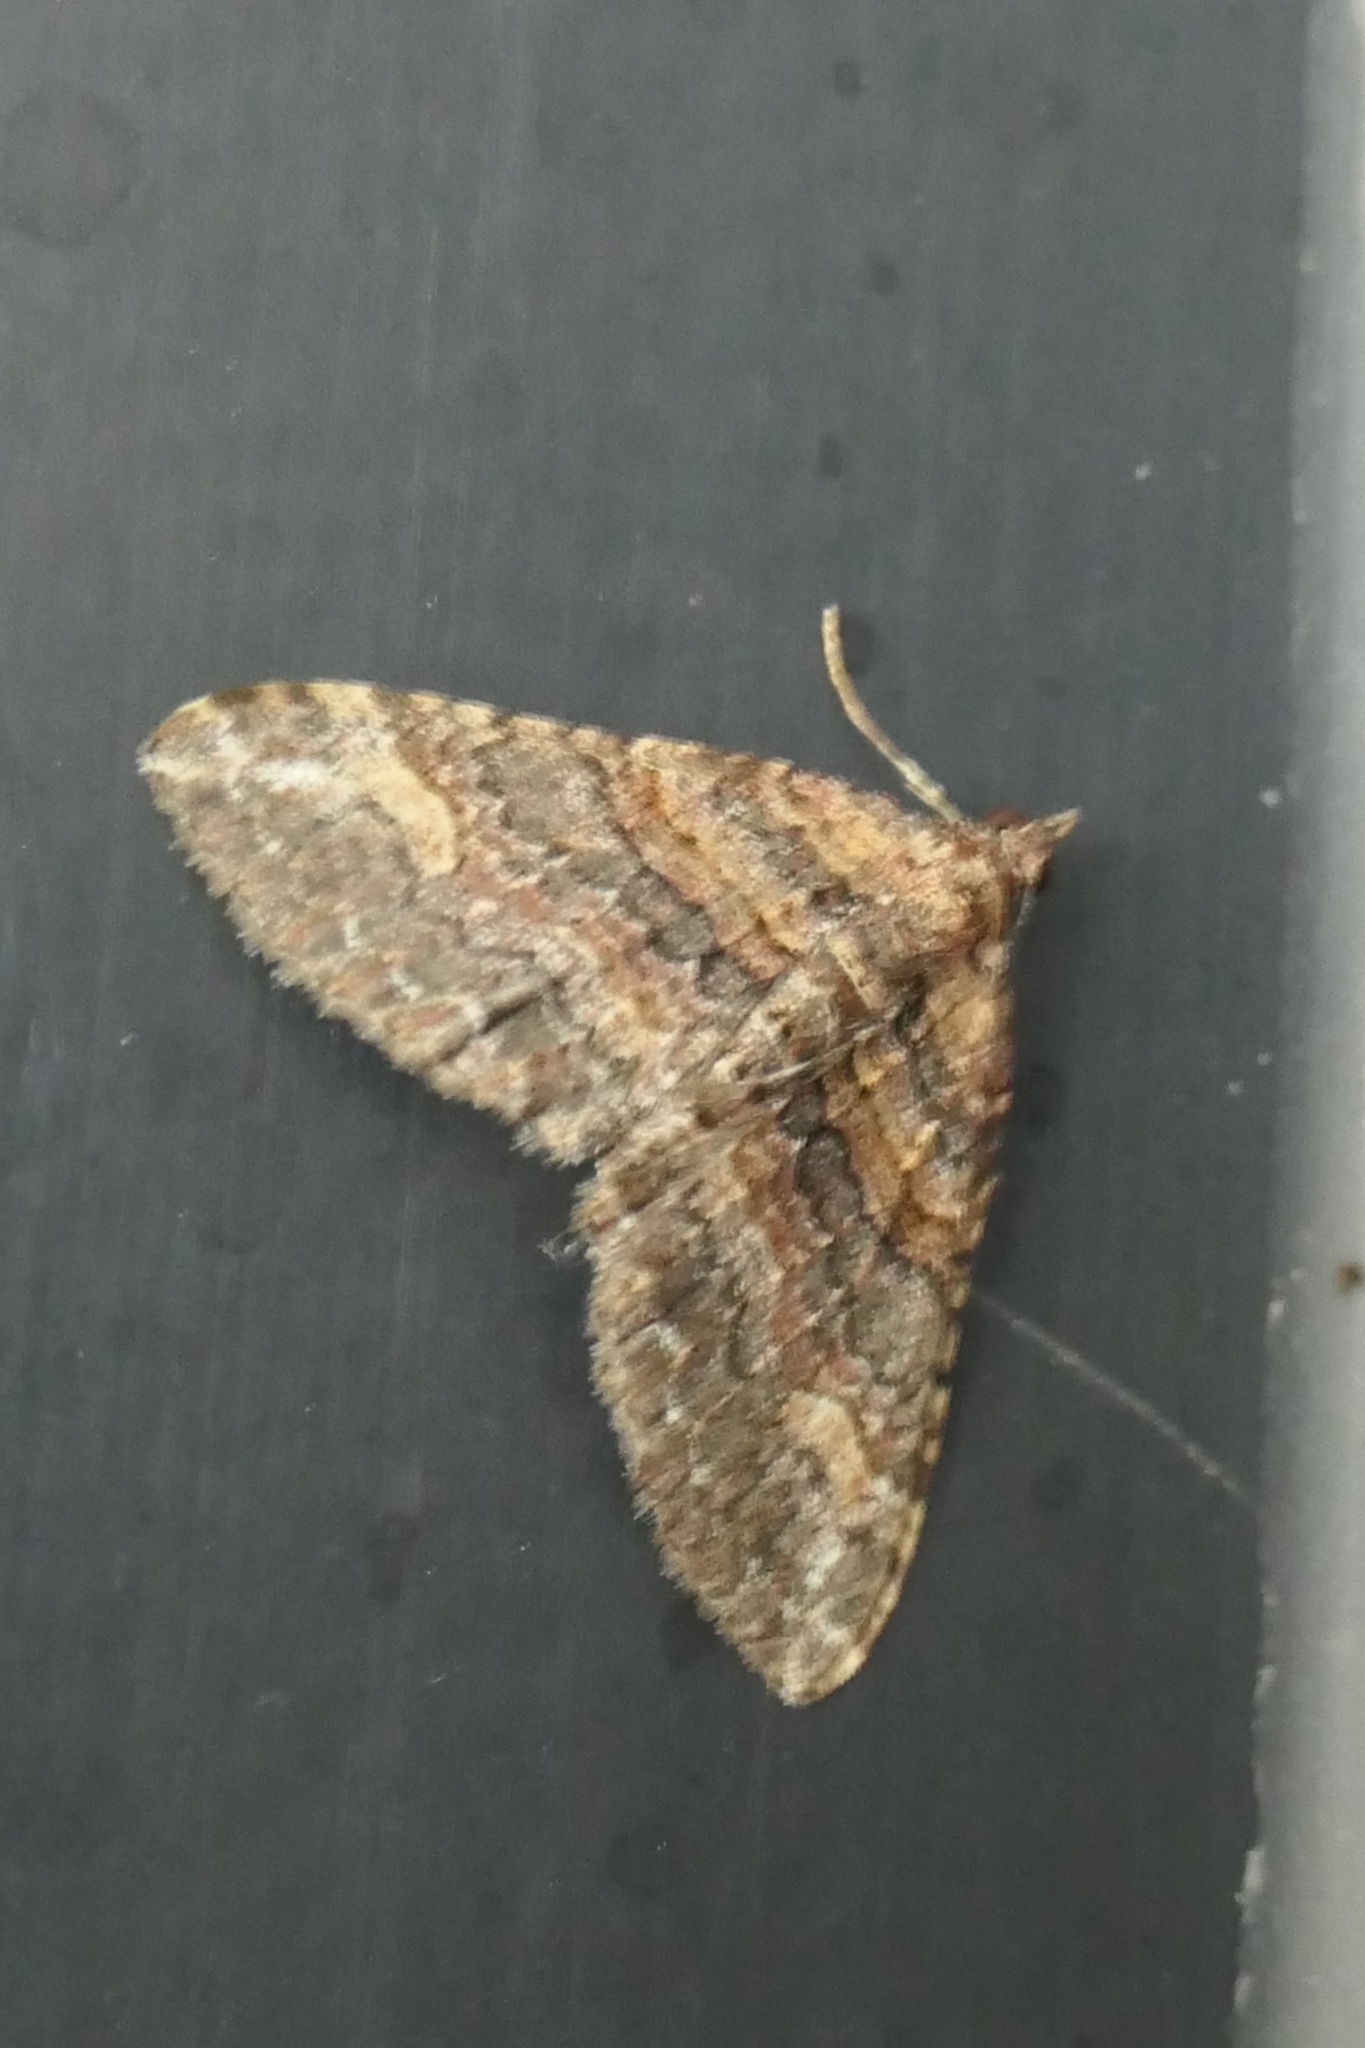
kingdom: Animalia
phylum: Arthropoda
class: Insecta
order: Lepidoptera
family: Geometridae
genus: Epyaxa
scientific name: Epyaxa lucidata
